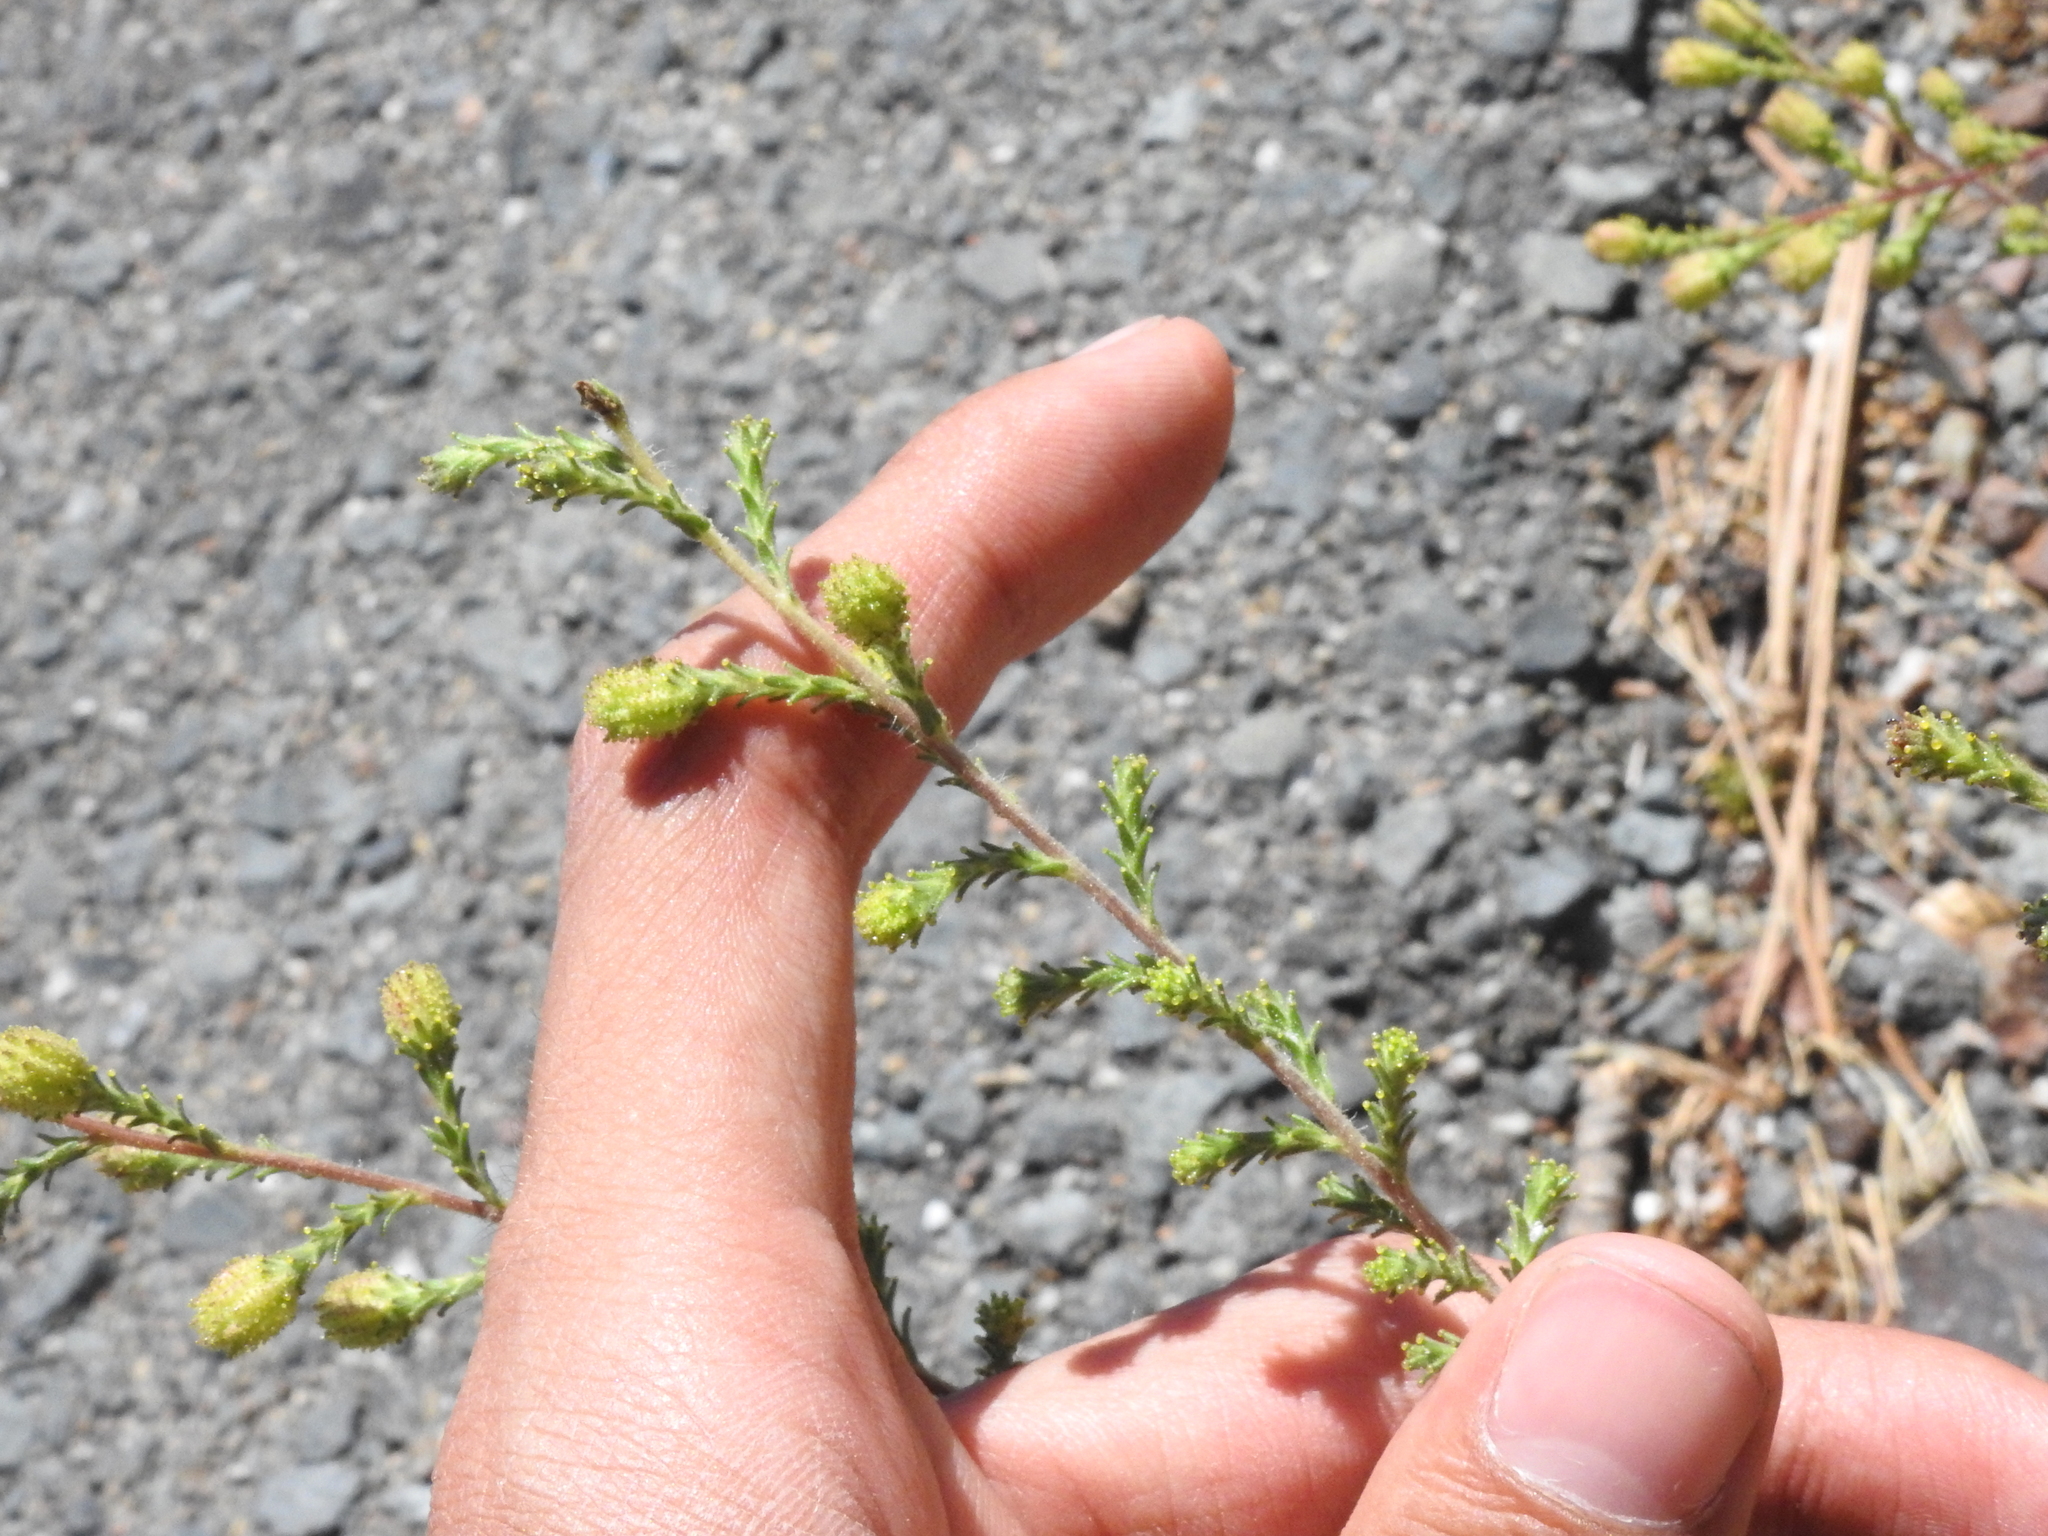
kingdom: Plantae
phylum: Tracheophyta
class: Magnoliopsida
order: Asterales
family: Asteraceae
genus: Holocarpha
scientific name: Holocarpha heermannii
